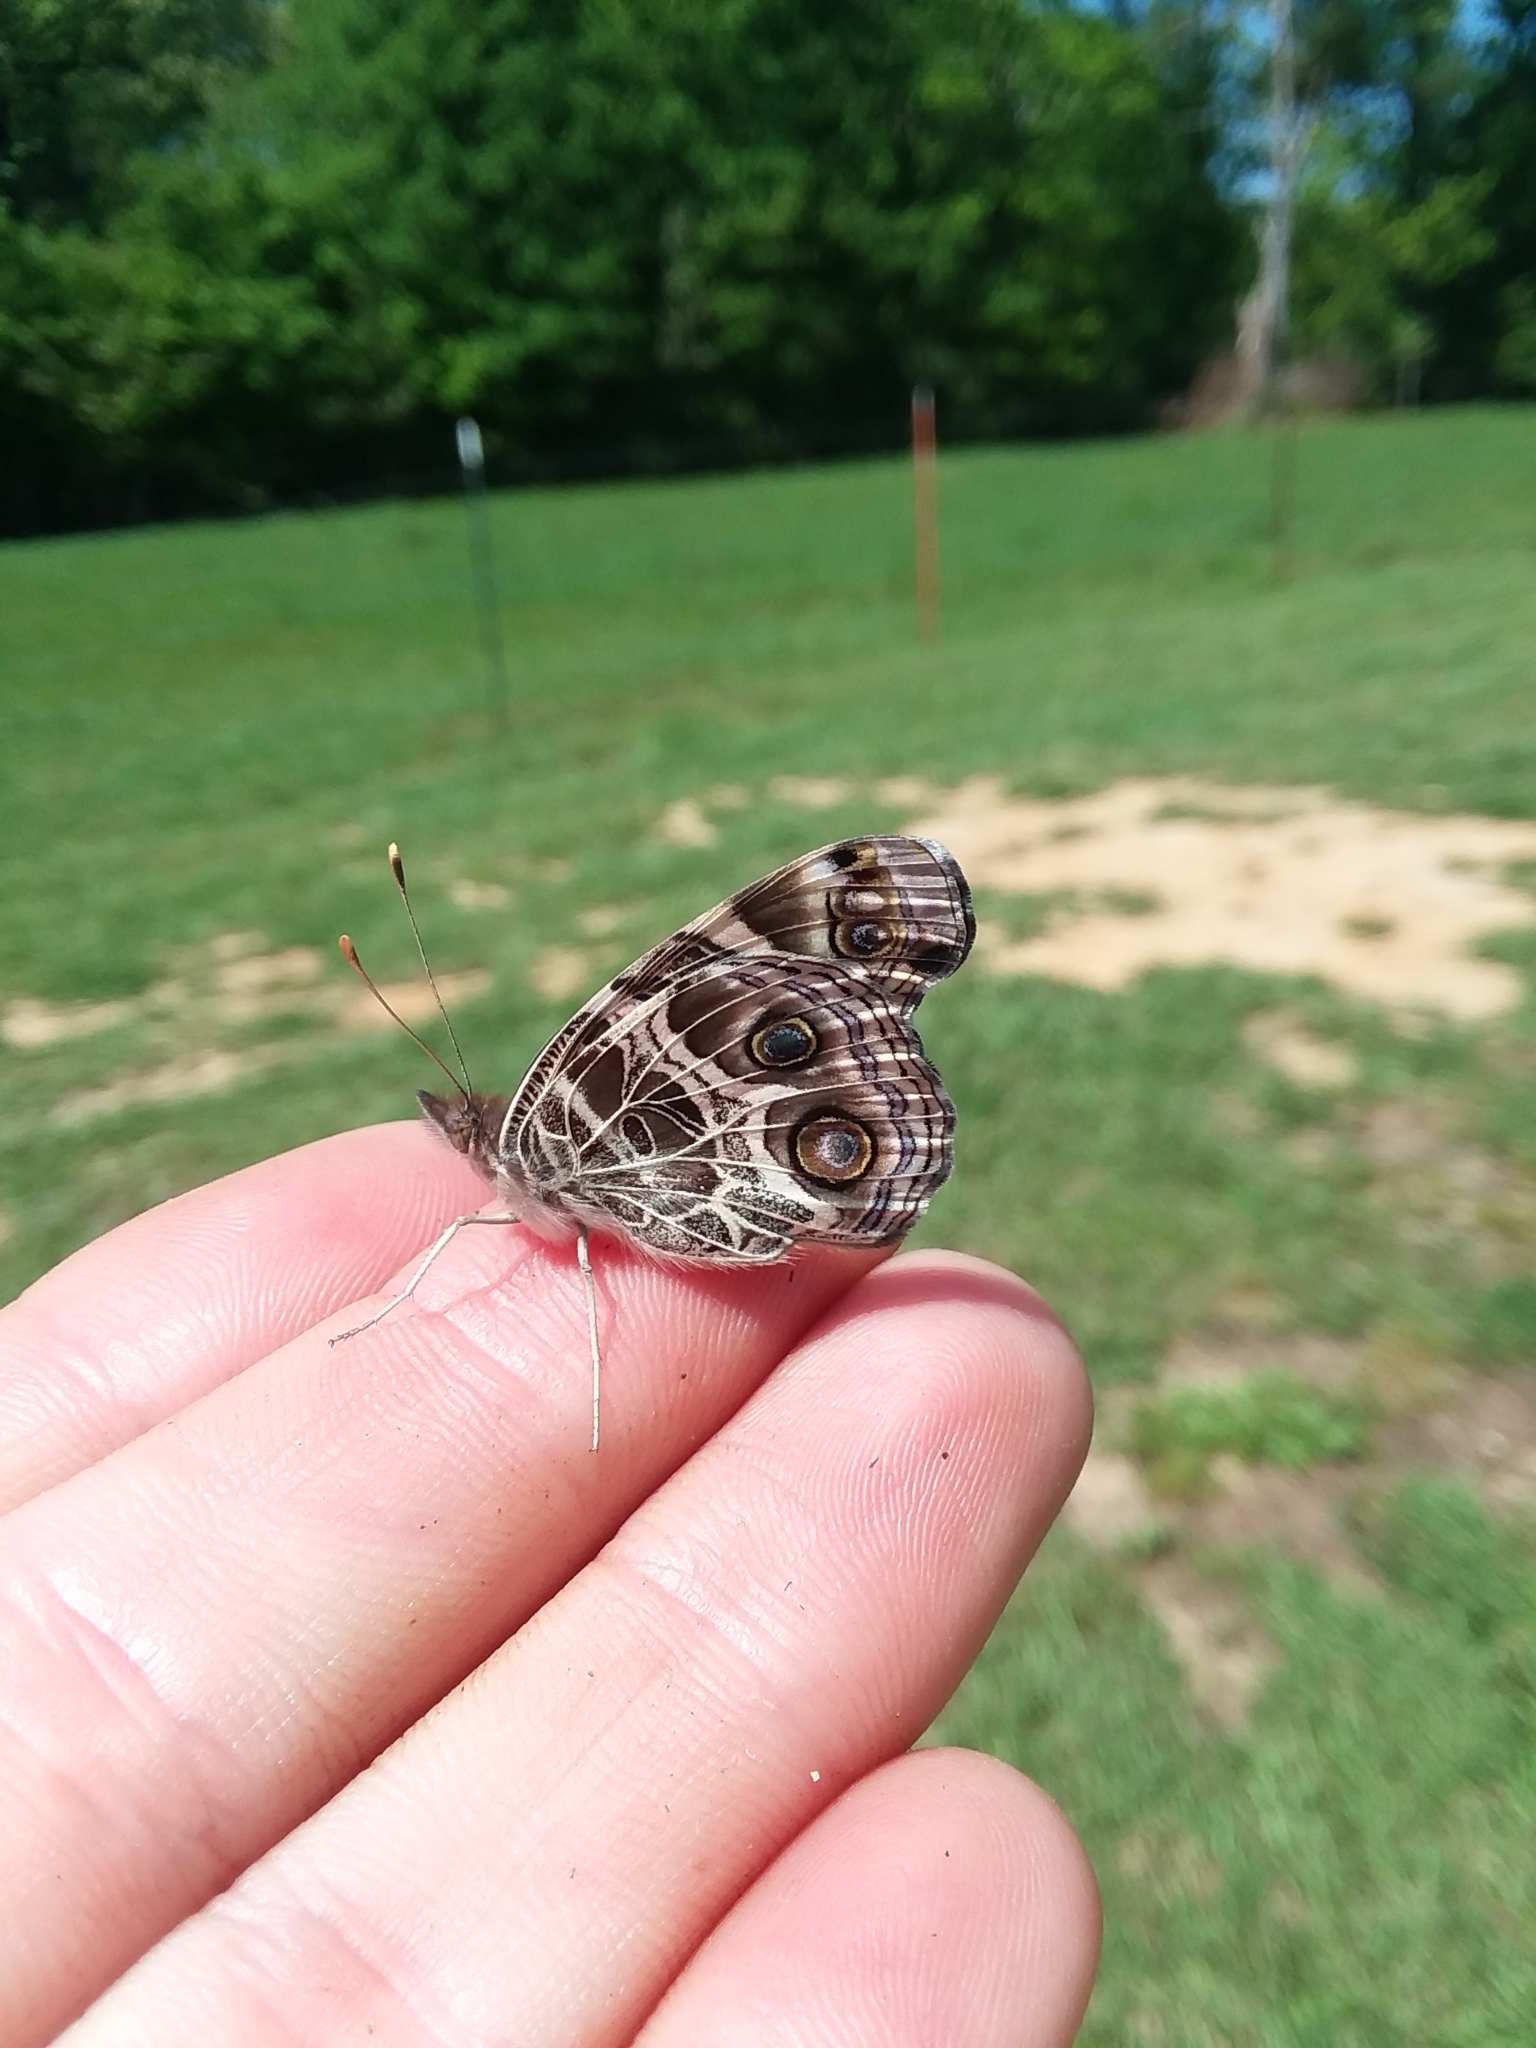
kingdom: Animalia
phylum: Arthropoda
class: Insecta
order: Lepidoptera
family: Nymphalidae
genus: Vanessa
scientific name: Vanessa virginiensis
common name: American lady
